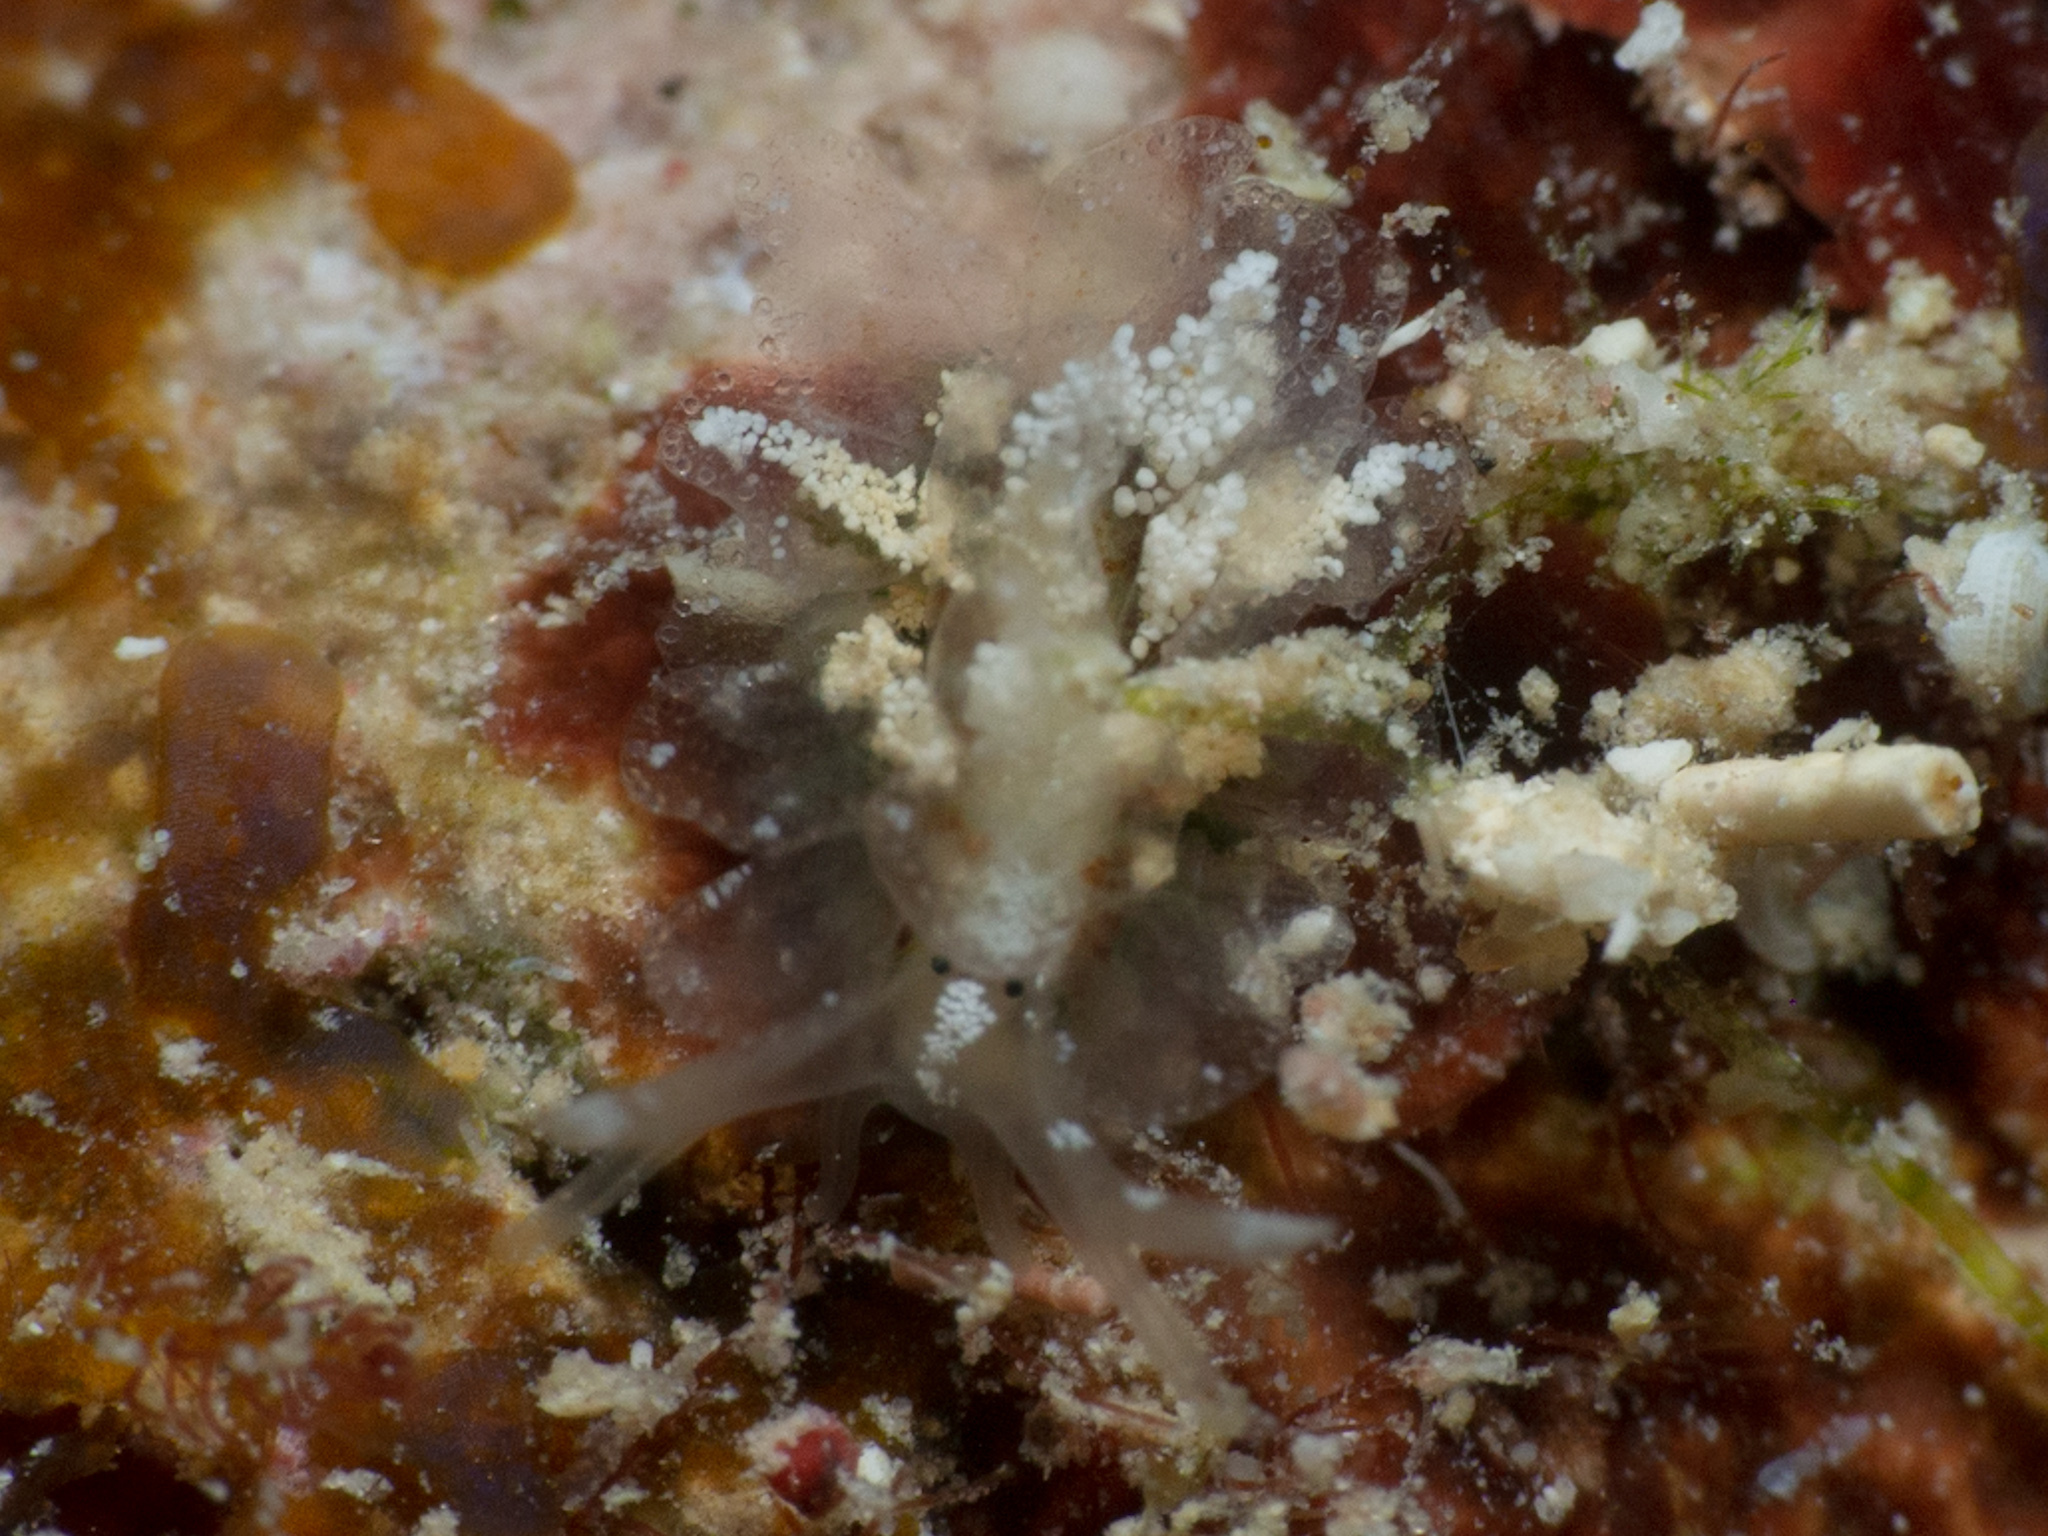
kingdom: Animalia
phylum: Mollusca
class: Gastropoda
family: Hermaeidae
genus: Hermaea
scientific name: Hermaea cruciata
